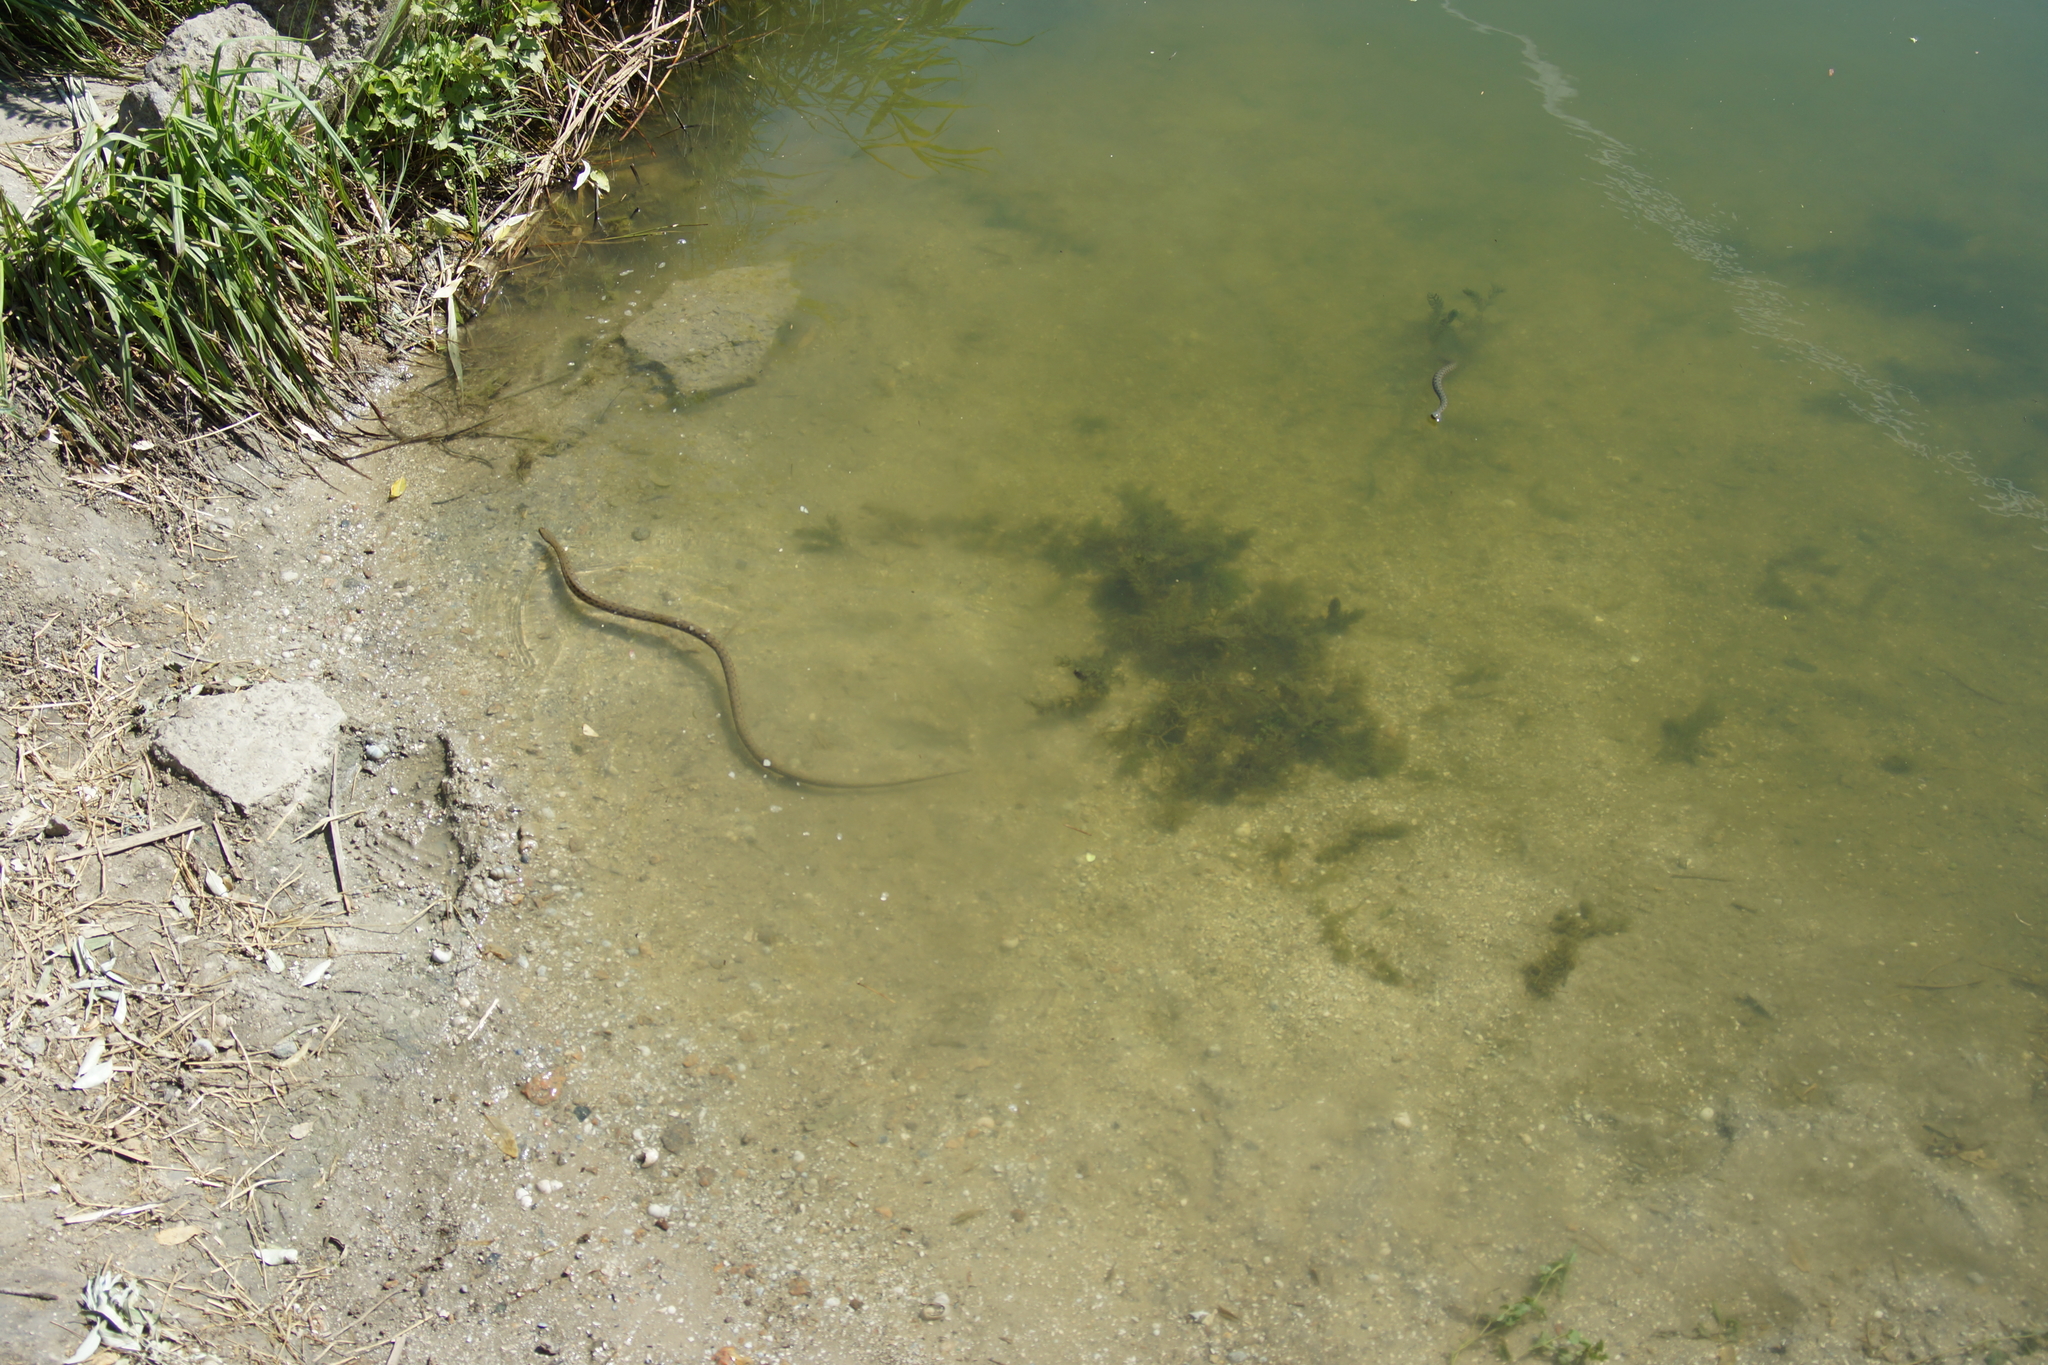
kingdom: Animalia
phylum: Chordata
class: Squamata
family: Colubridae
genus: Natrix
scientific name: Natrix tessellata
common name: Dice snake
